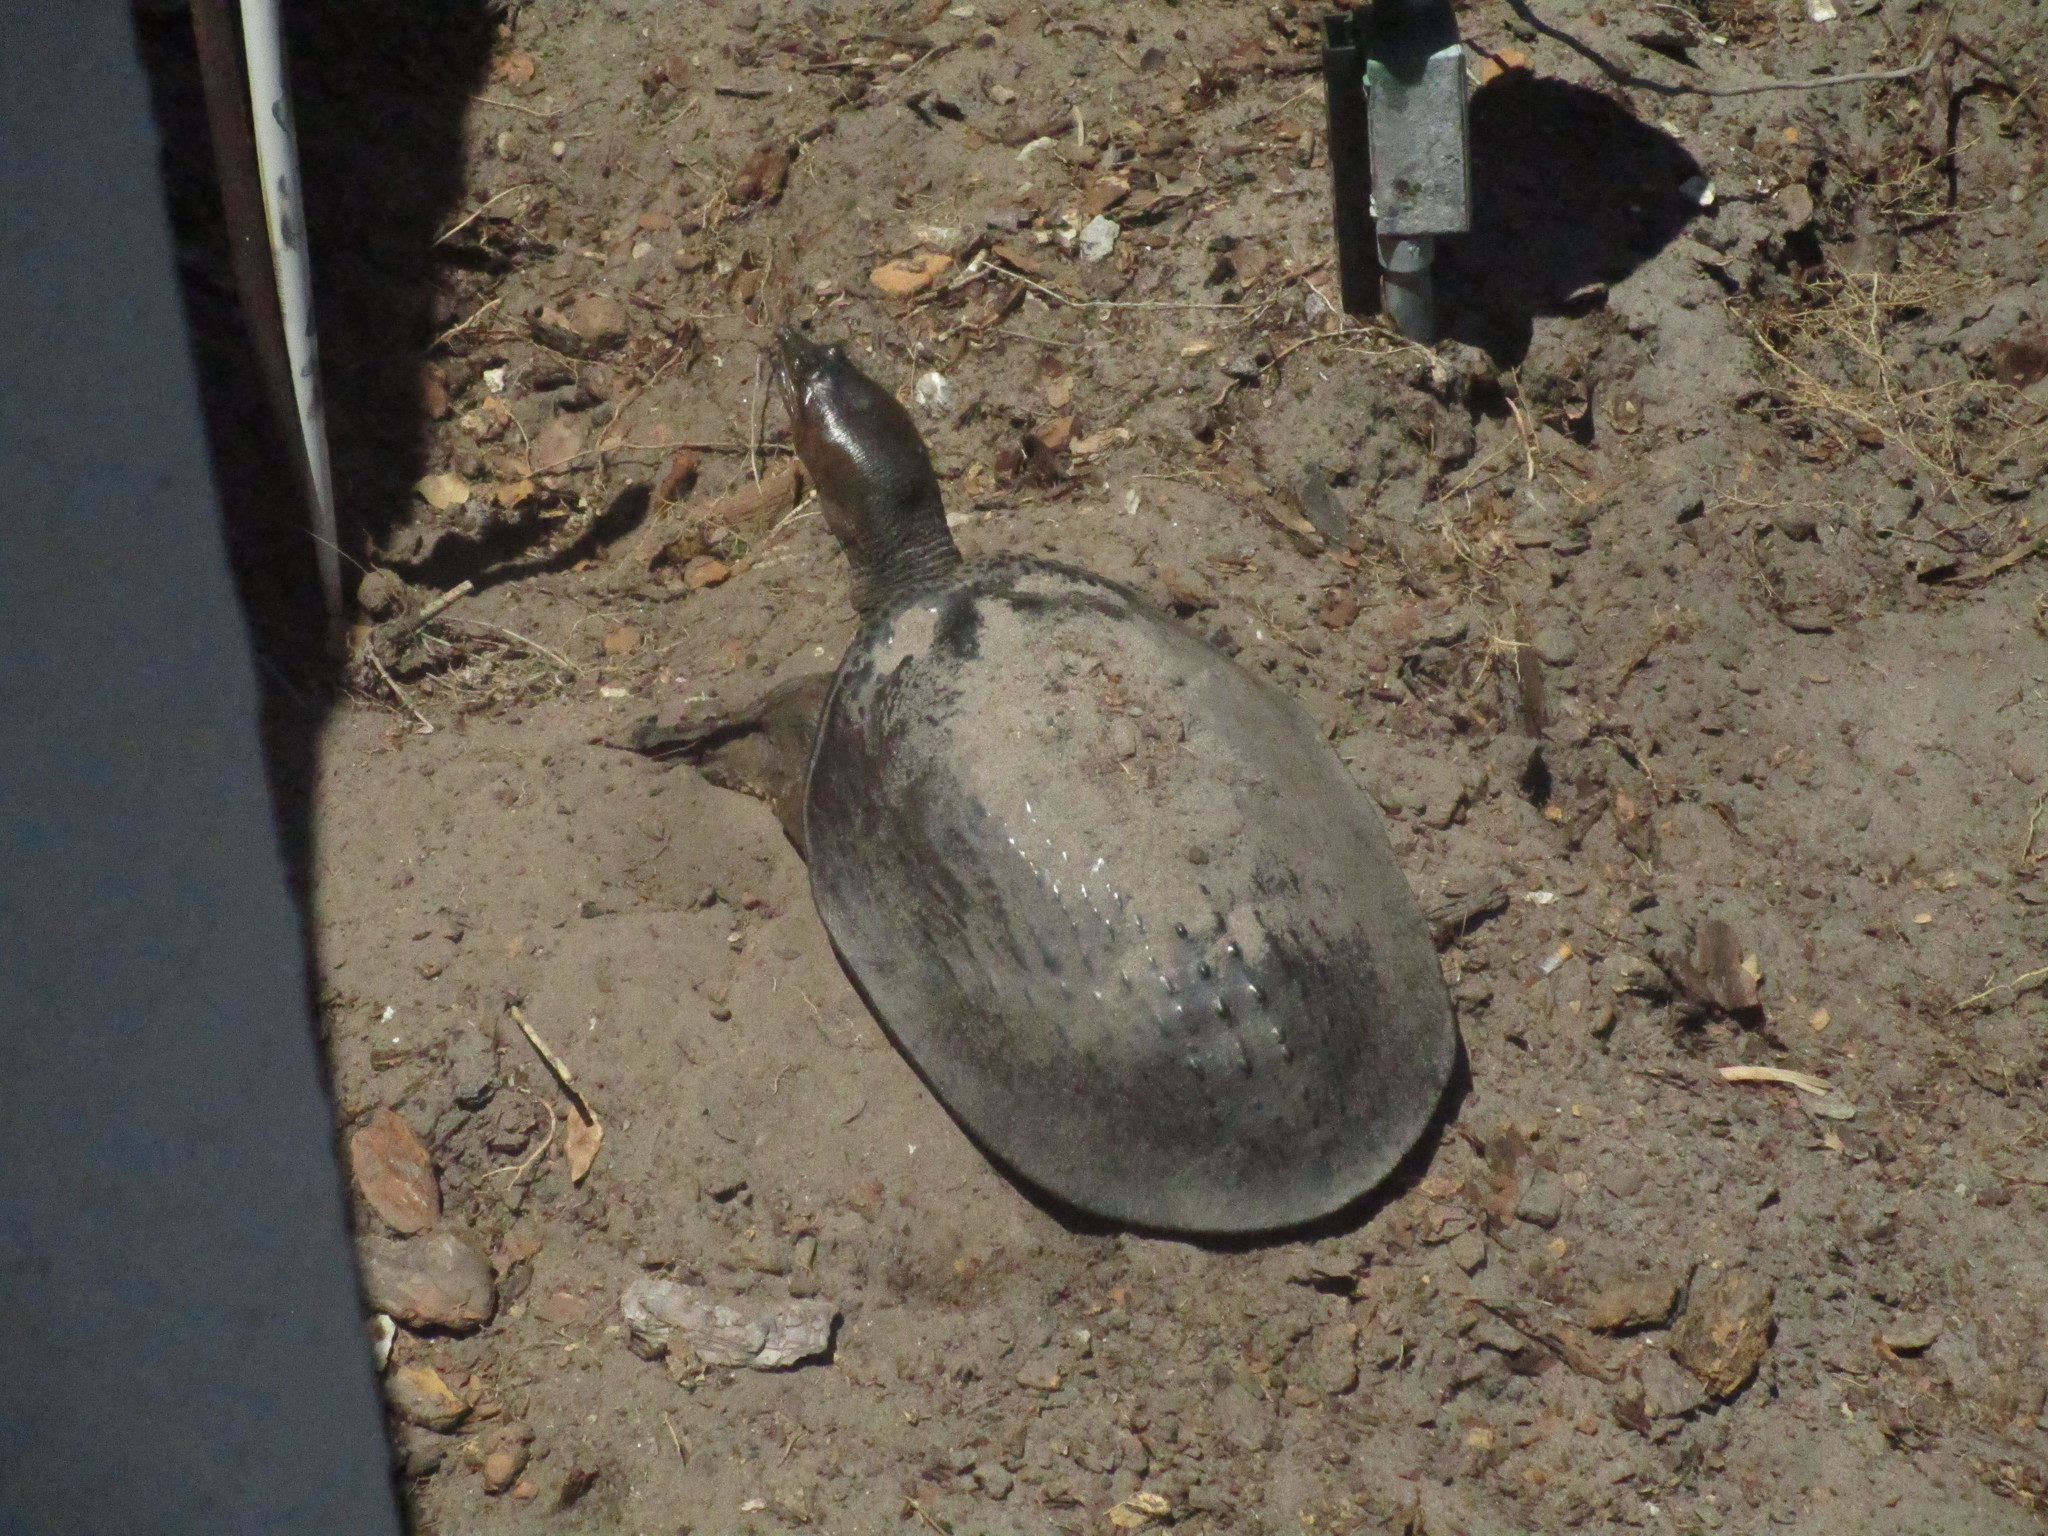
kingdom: Animalia
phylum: Chordata
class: Testudines
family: Trionychidae
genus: Apalone
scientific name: Apalone ferox
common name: Florida softshell turtle
